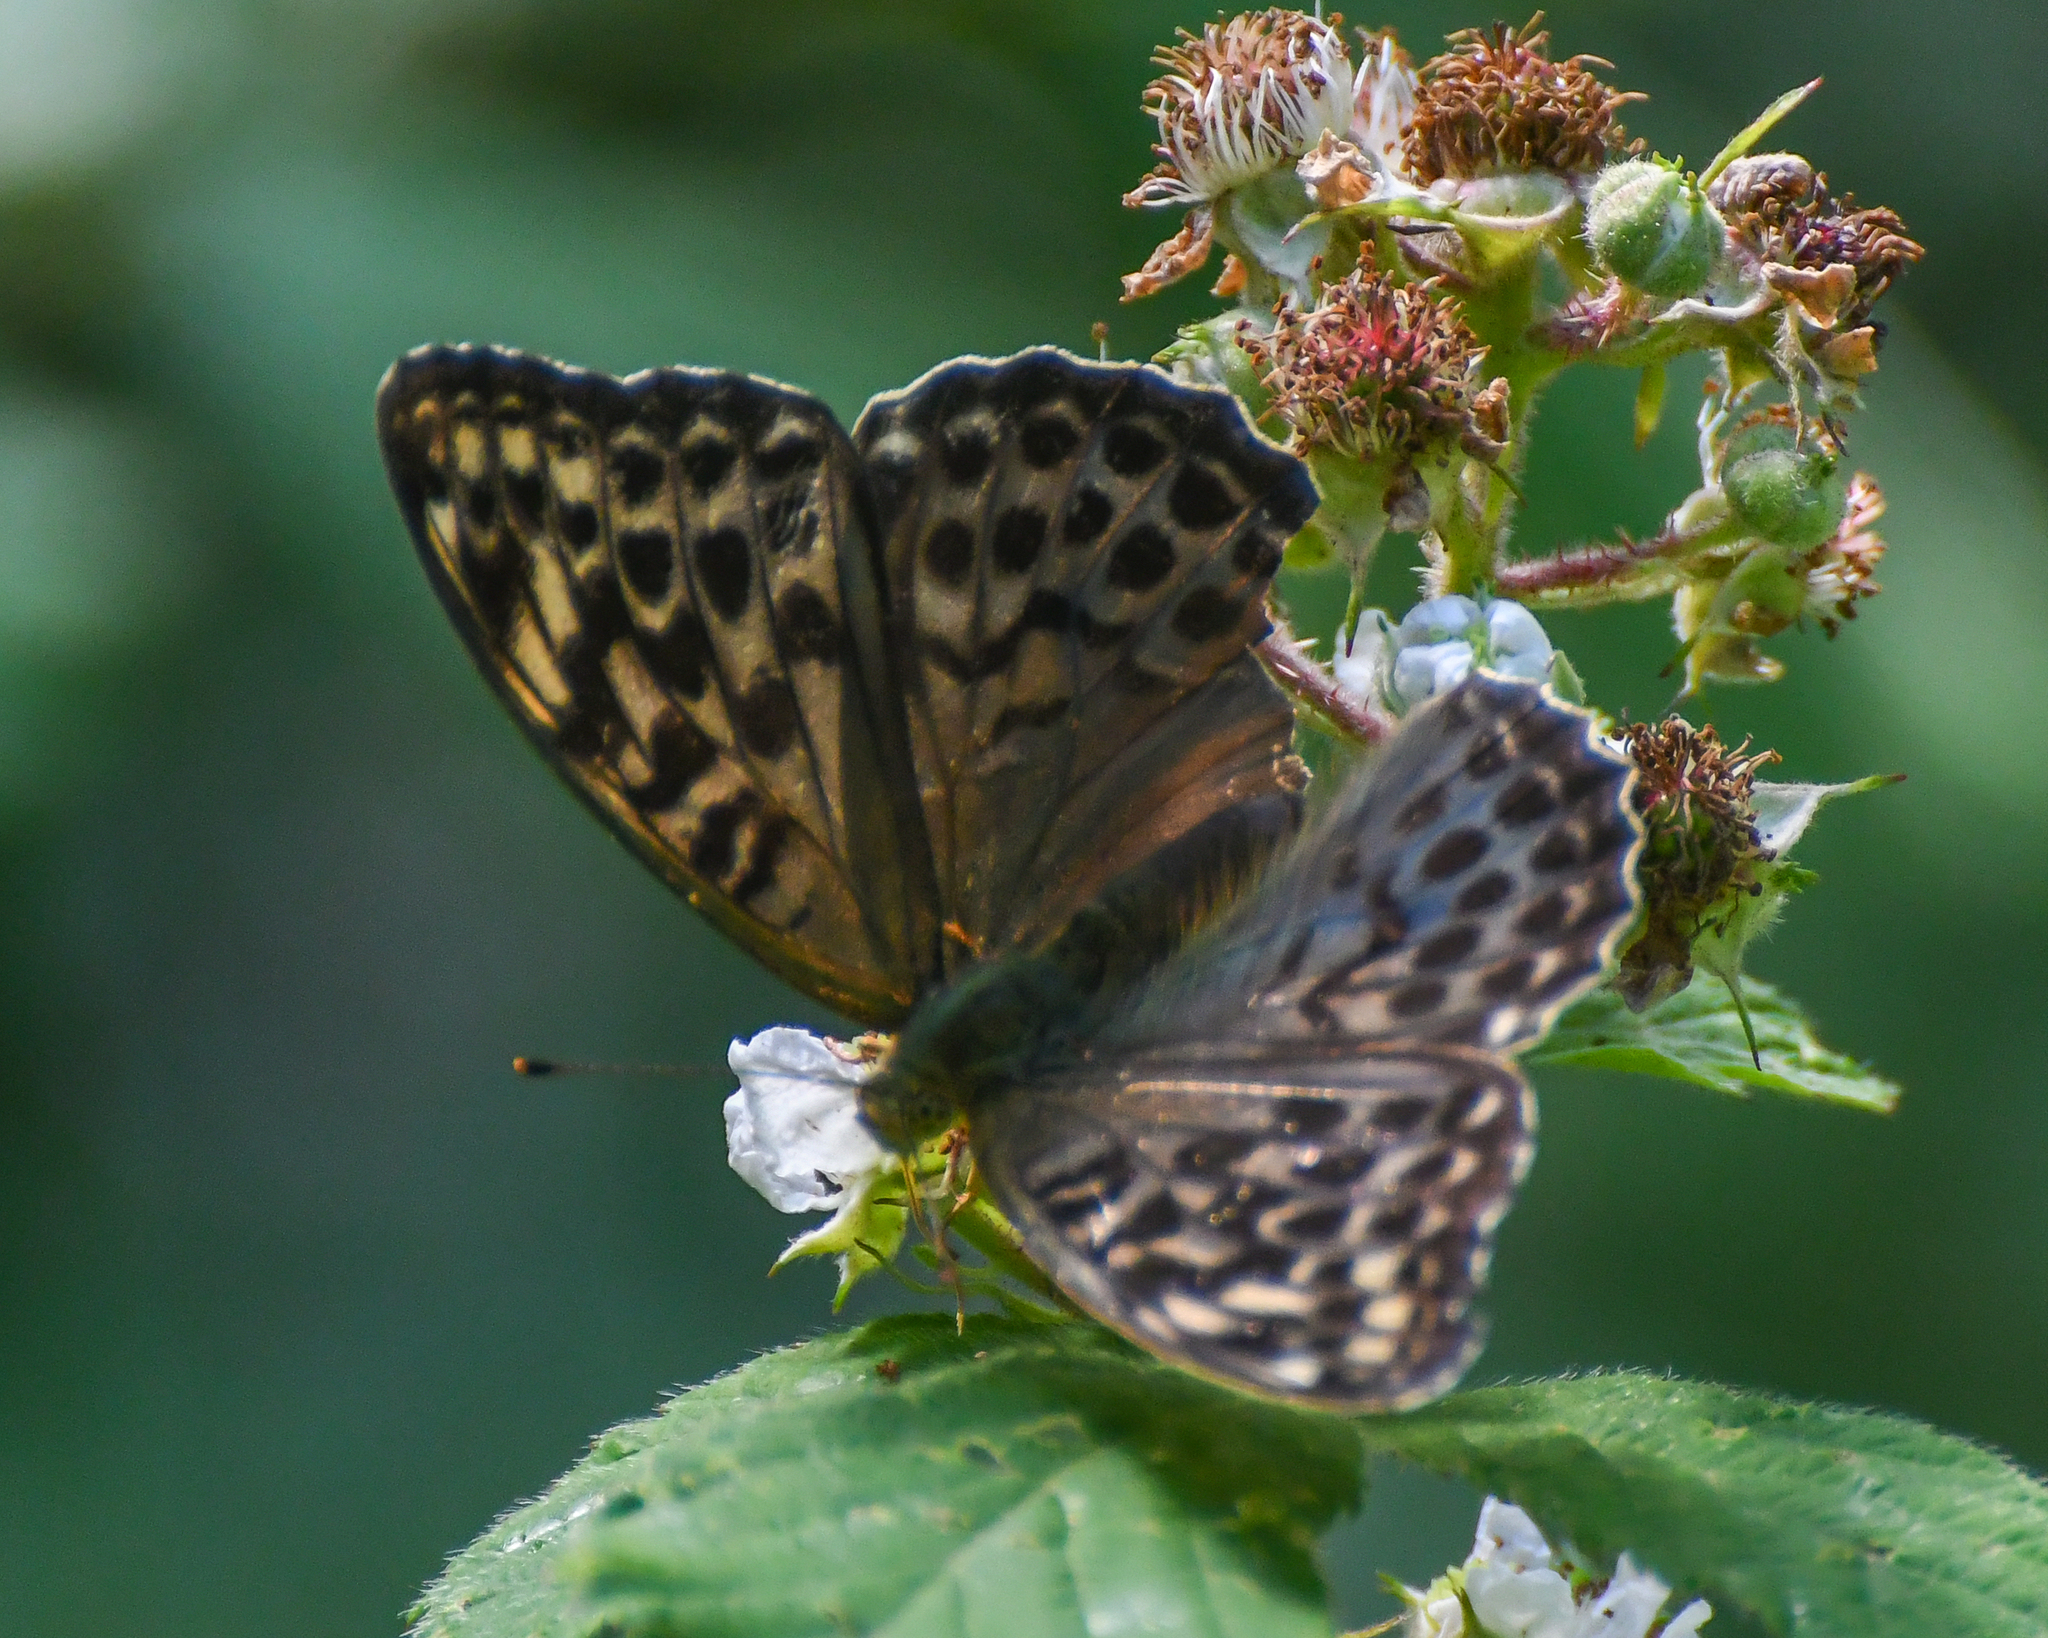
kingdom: Animalia
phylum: Arthropoda
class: Insecta
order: Lepidoptera
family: Nymphalidae
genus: Argynnis
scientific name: Argynnis paphia
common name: Silver-washed fritillary
